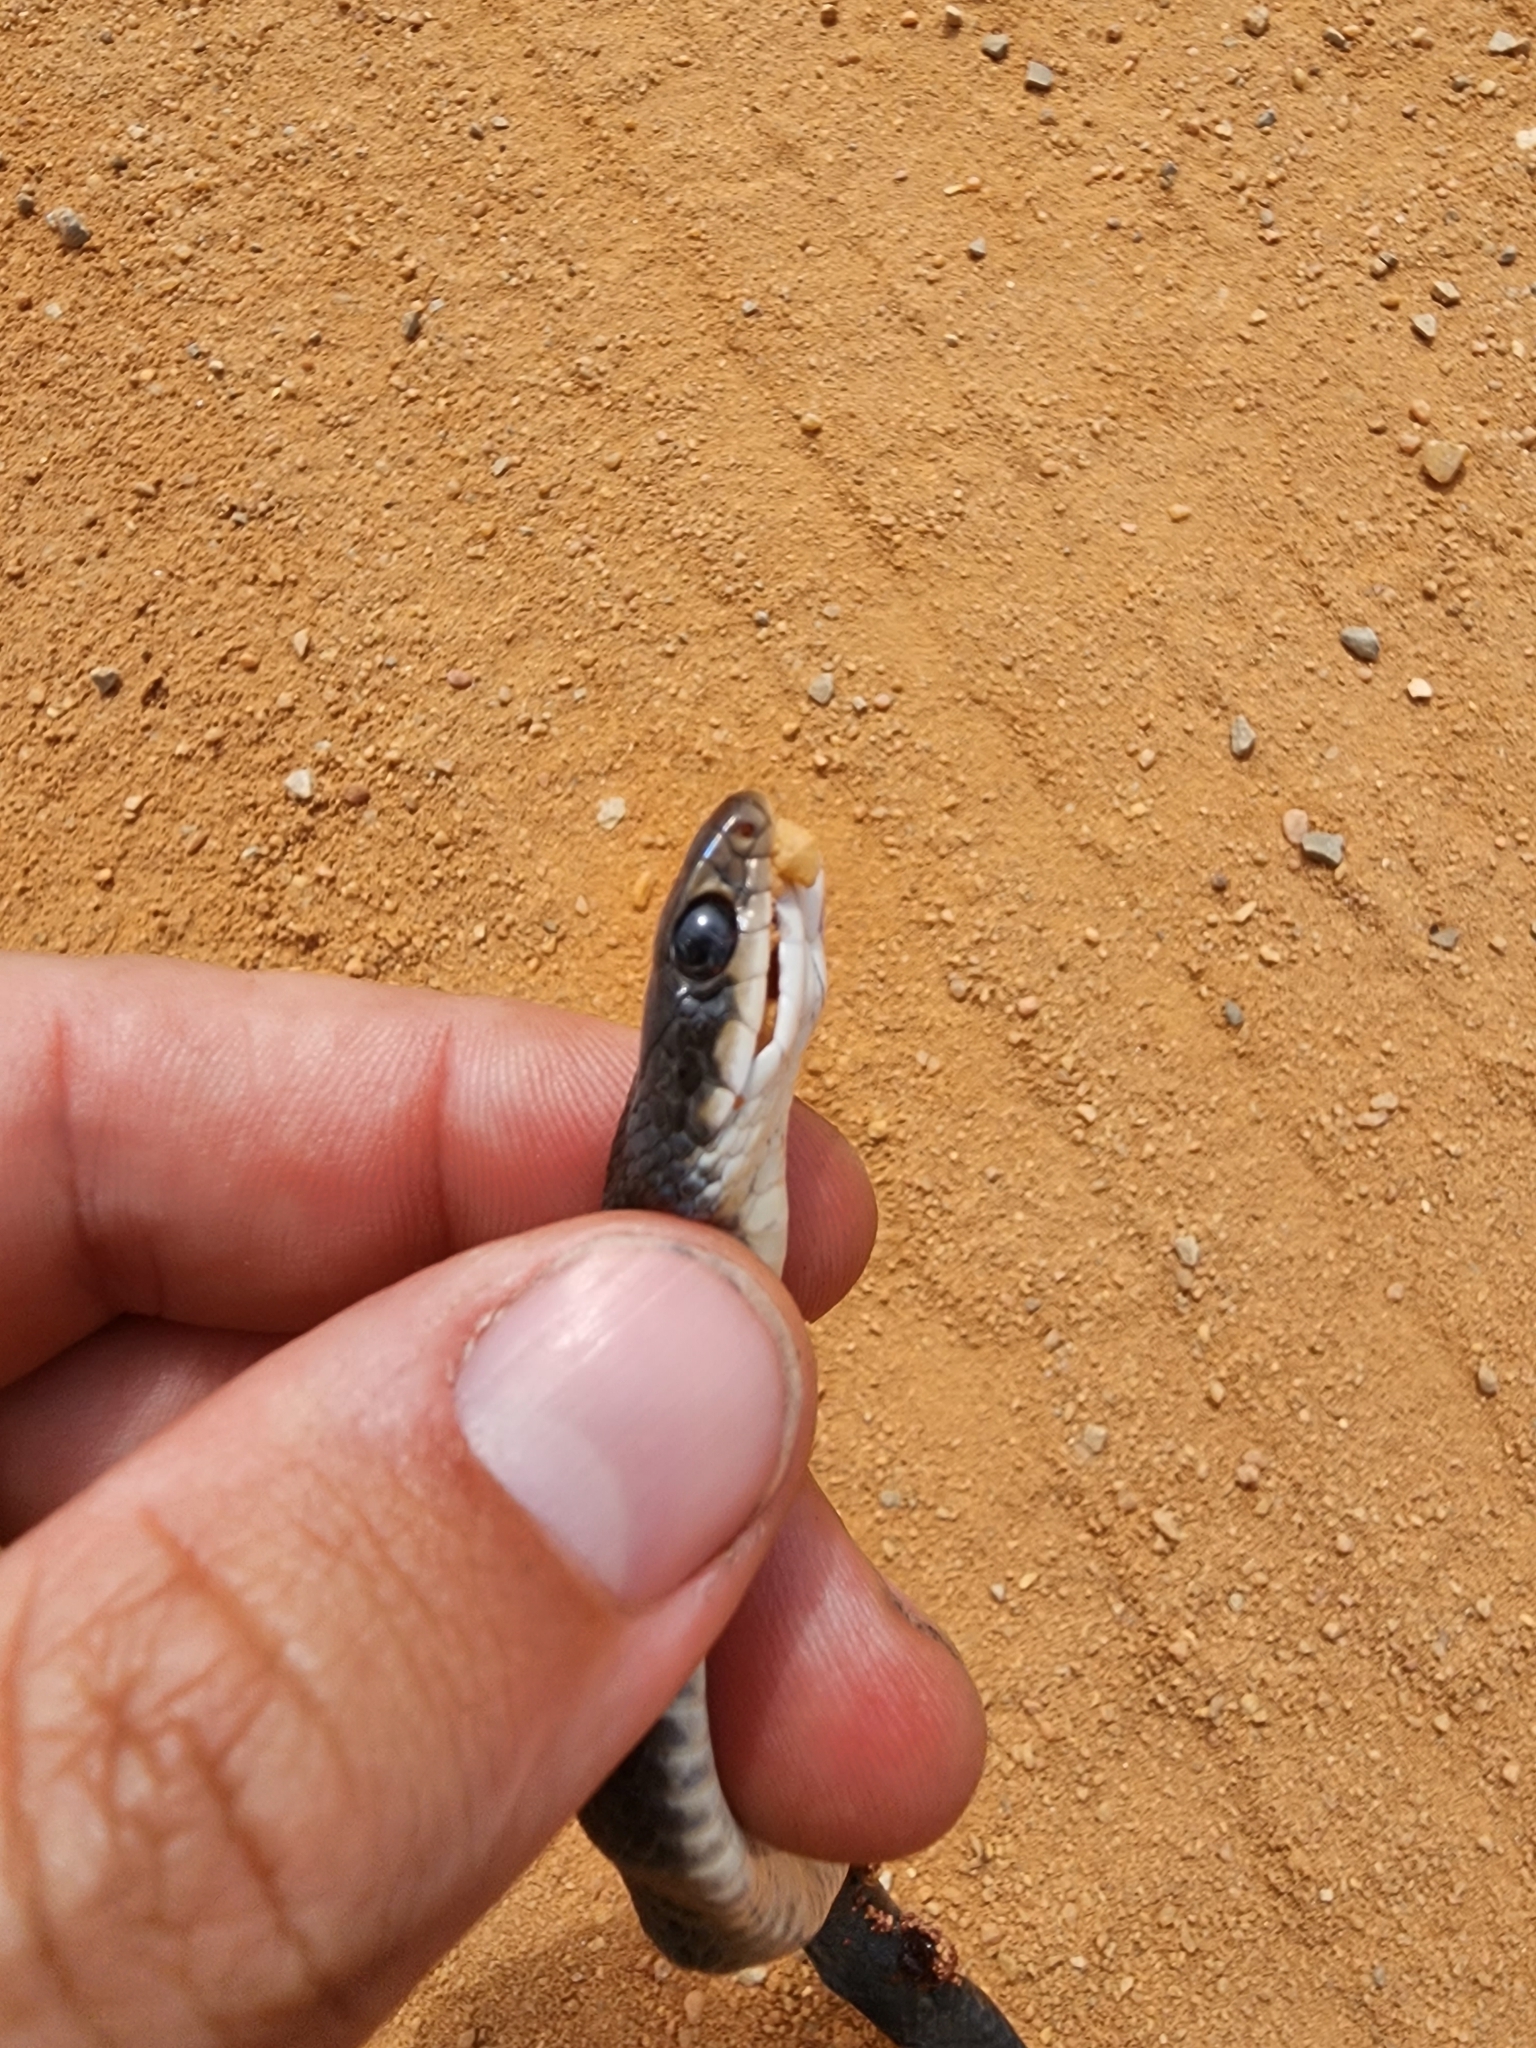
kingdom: Animalia
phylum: Chordata
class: Squamata
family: Colubridae
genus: Coluber
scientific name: Coluber constrictor
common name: Eastern racer
